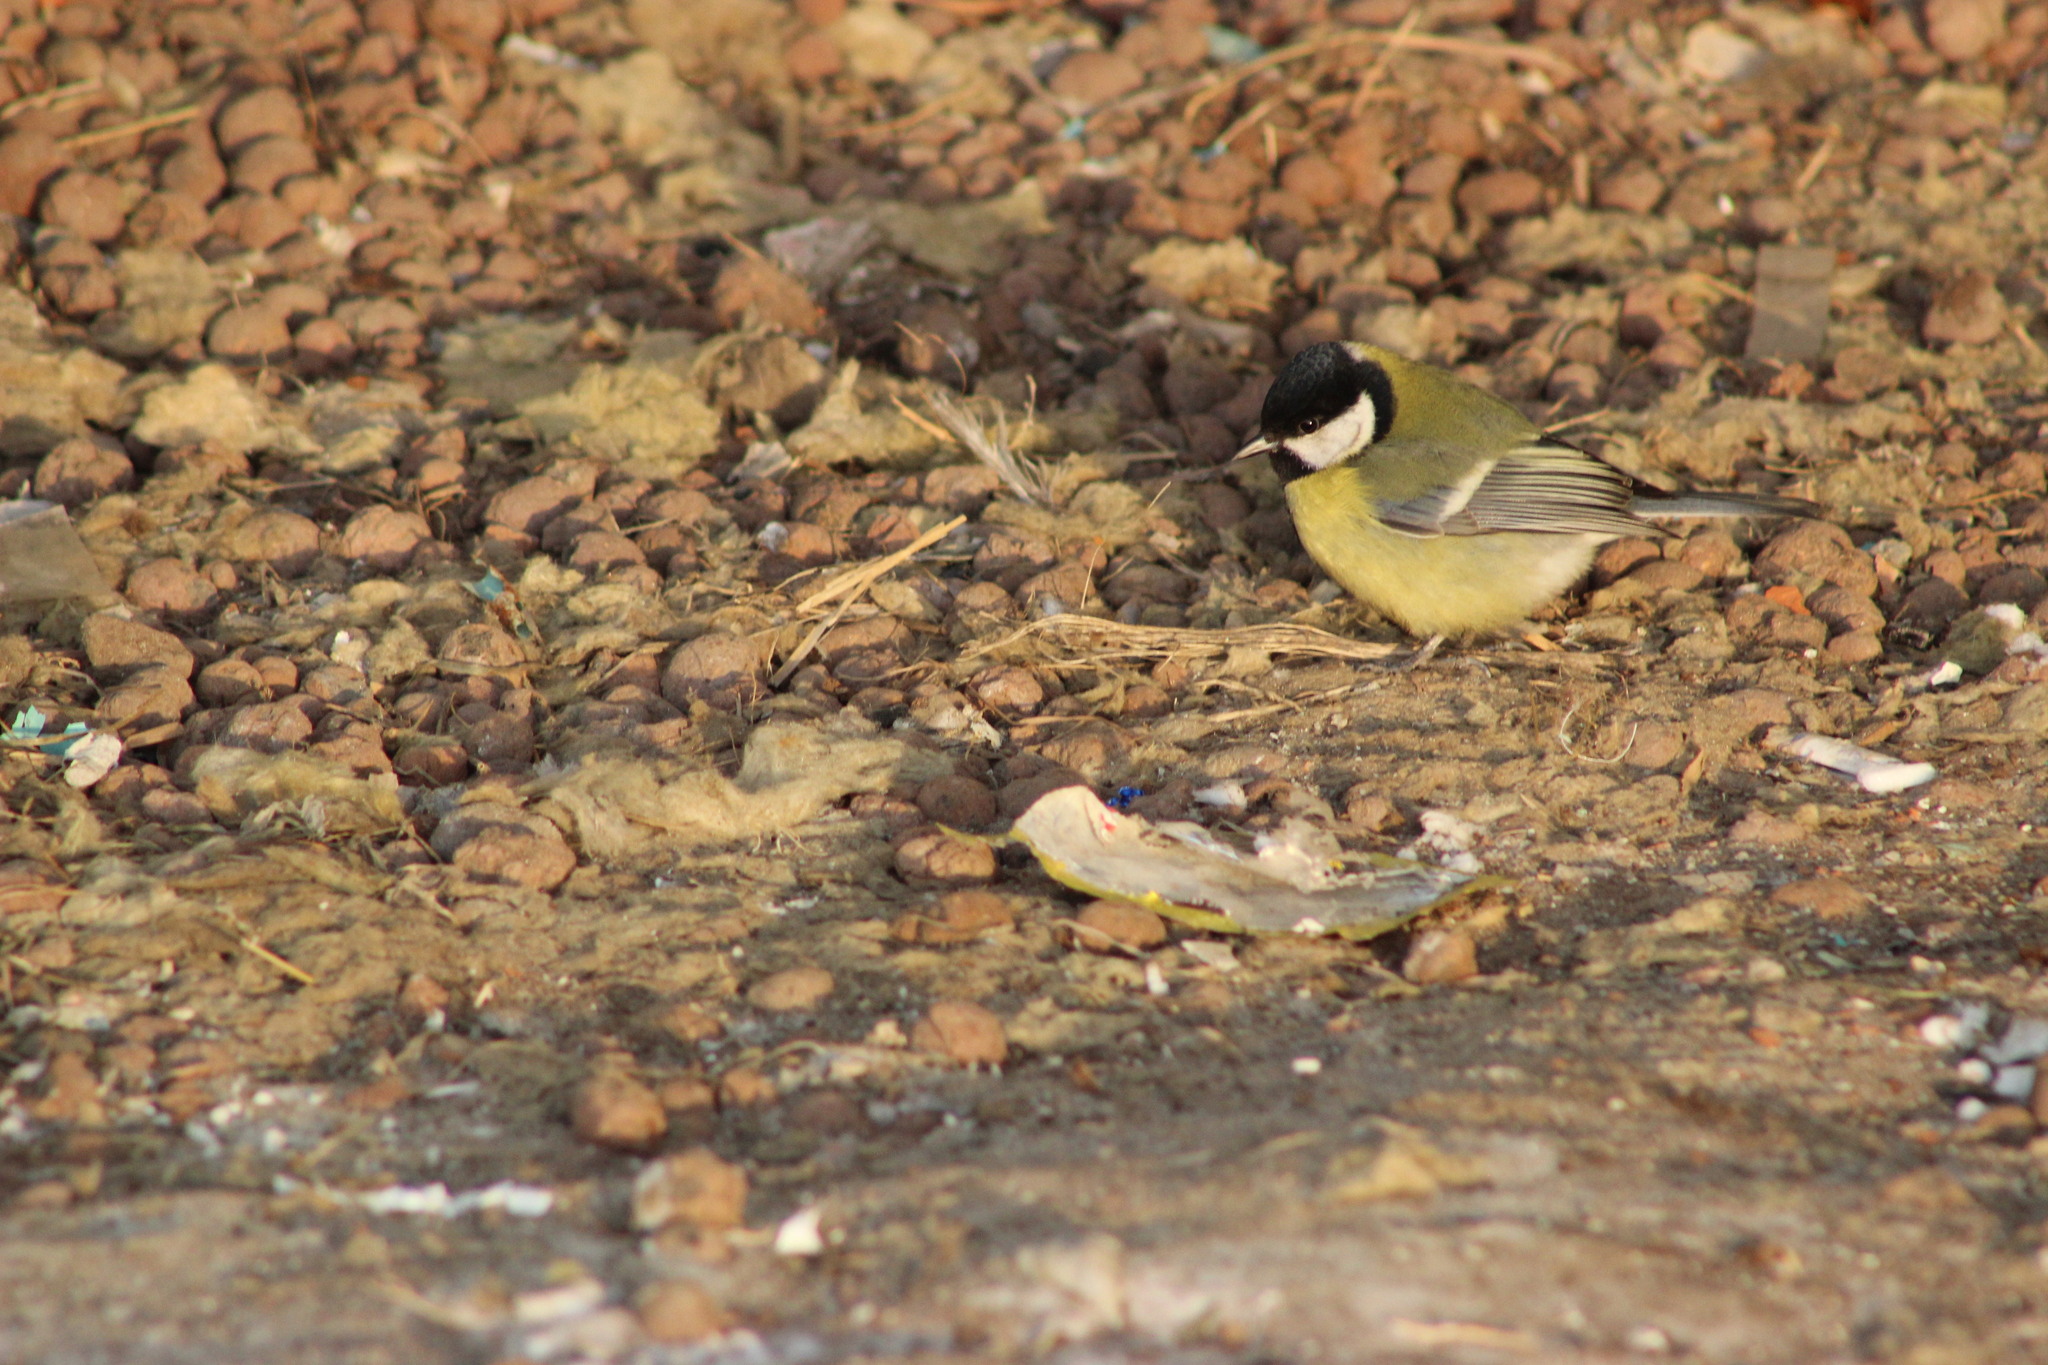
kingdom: Animalia
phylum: Chordata
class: Aves
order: Passeriformes
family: Paridae
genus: Parus
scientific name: Parus major
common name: Great tit
